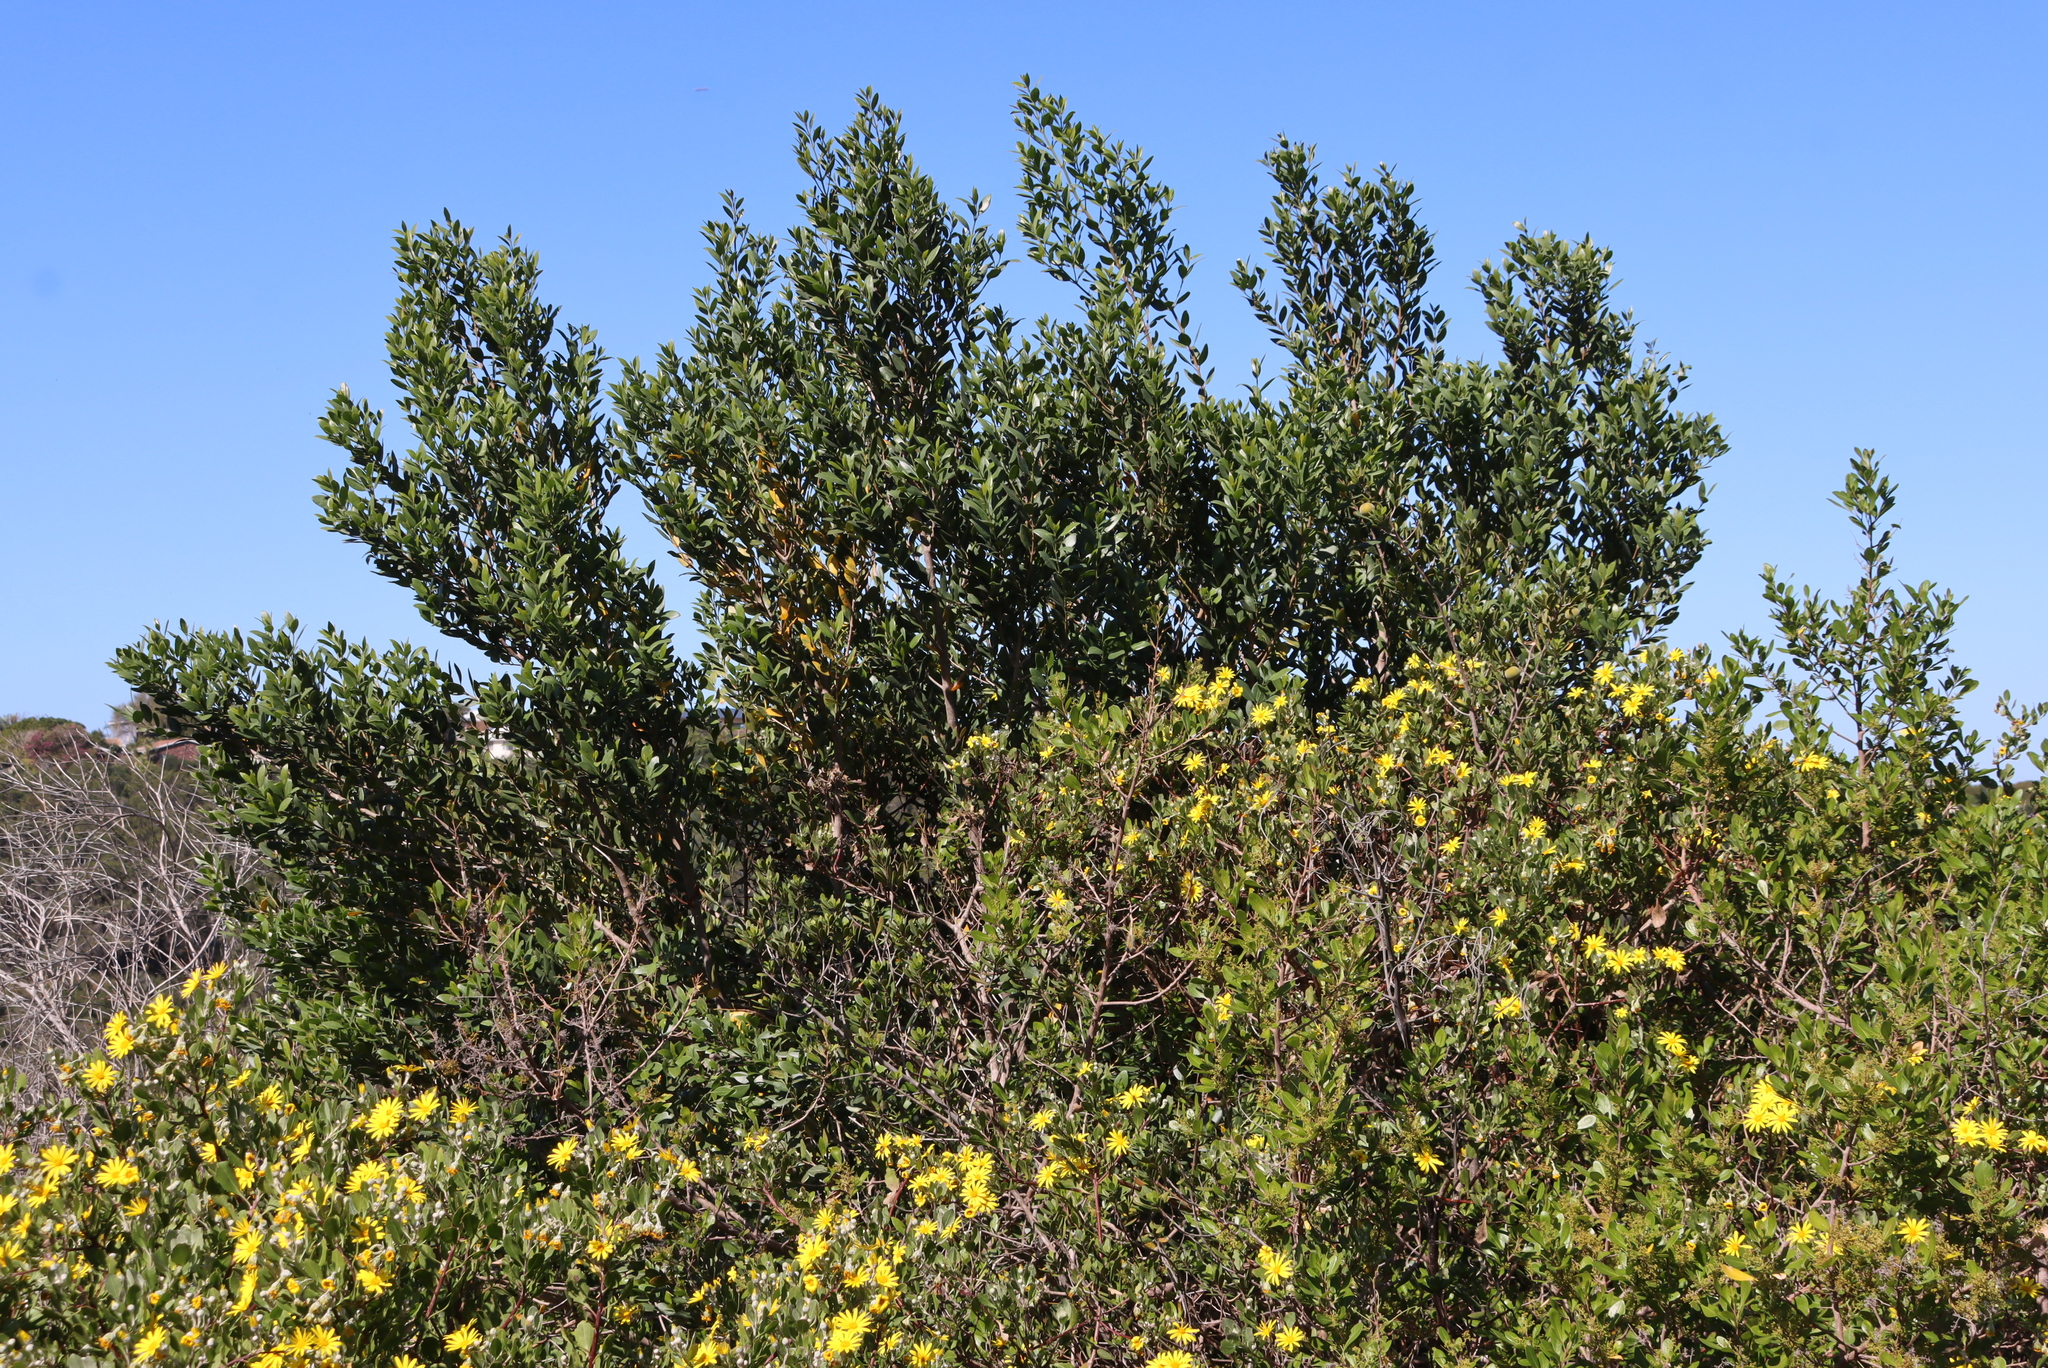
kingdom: Plantae
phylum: Tracheophyta
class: Magnoliopsida
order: Ericales
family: Ebenaceae
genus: Diospyros
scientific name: Diospyros dichrophylla
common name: Common star-apple
